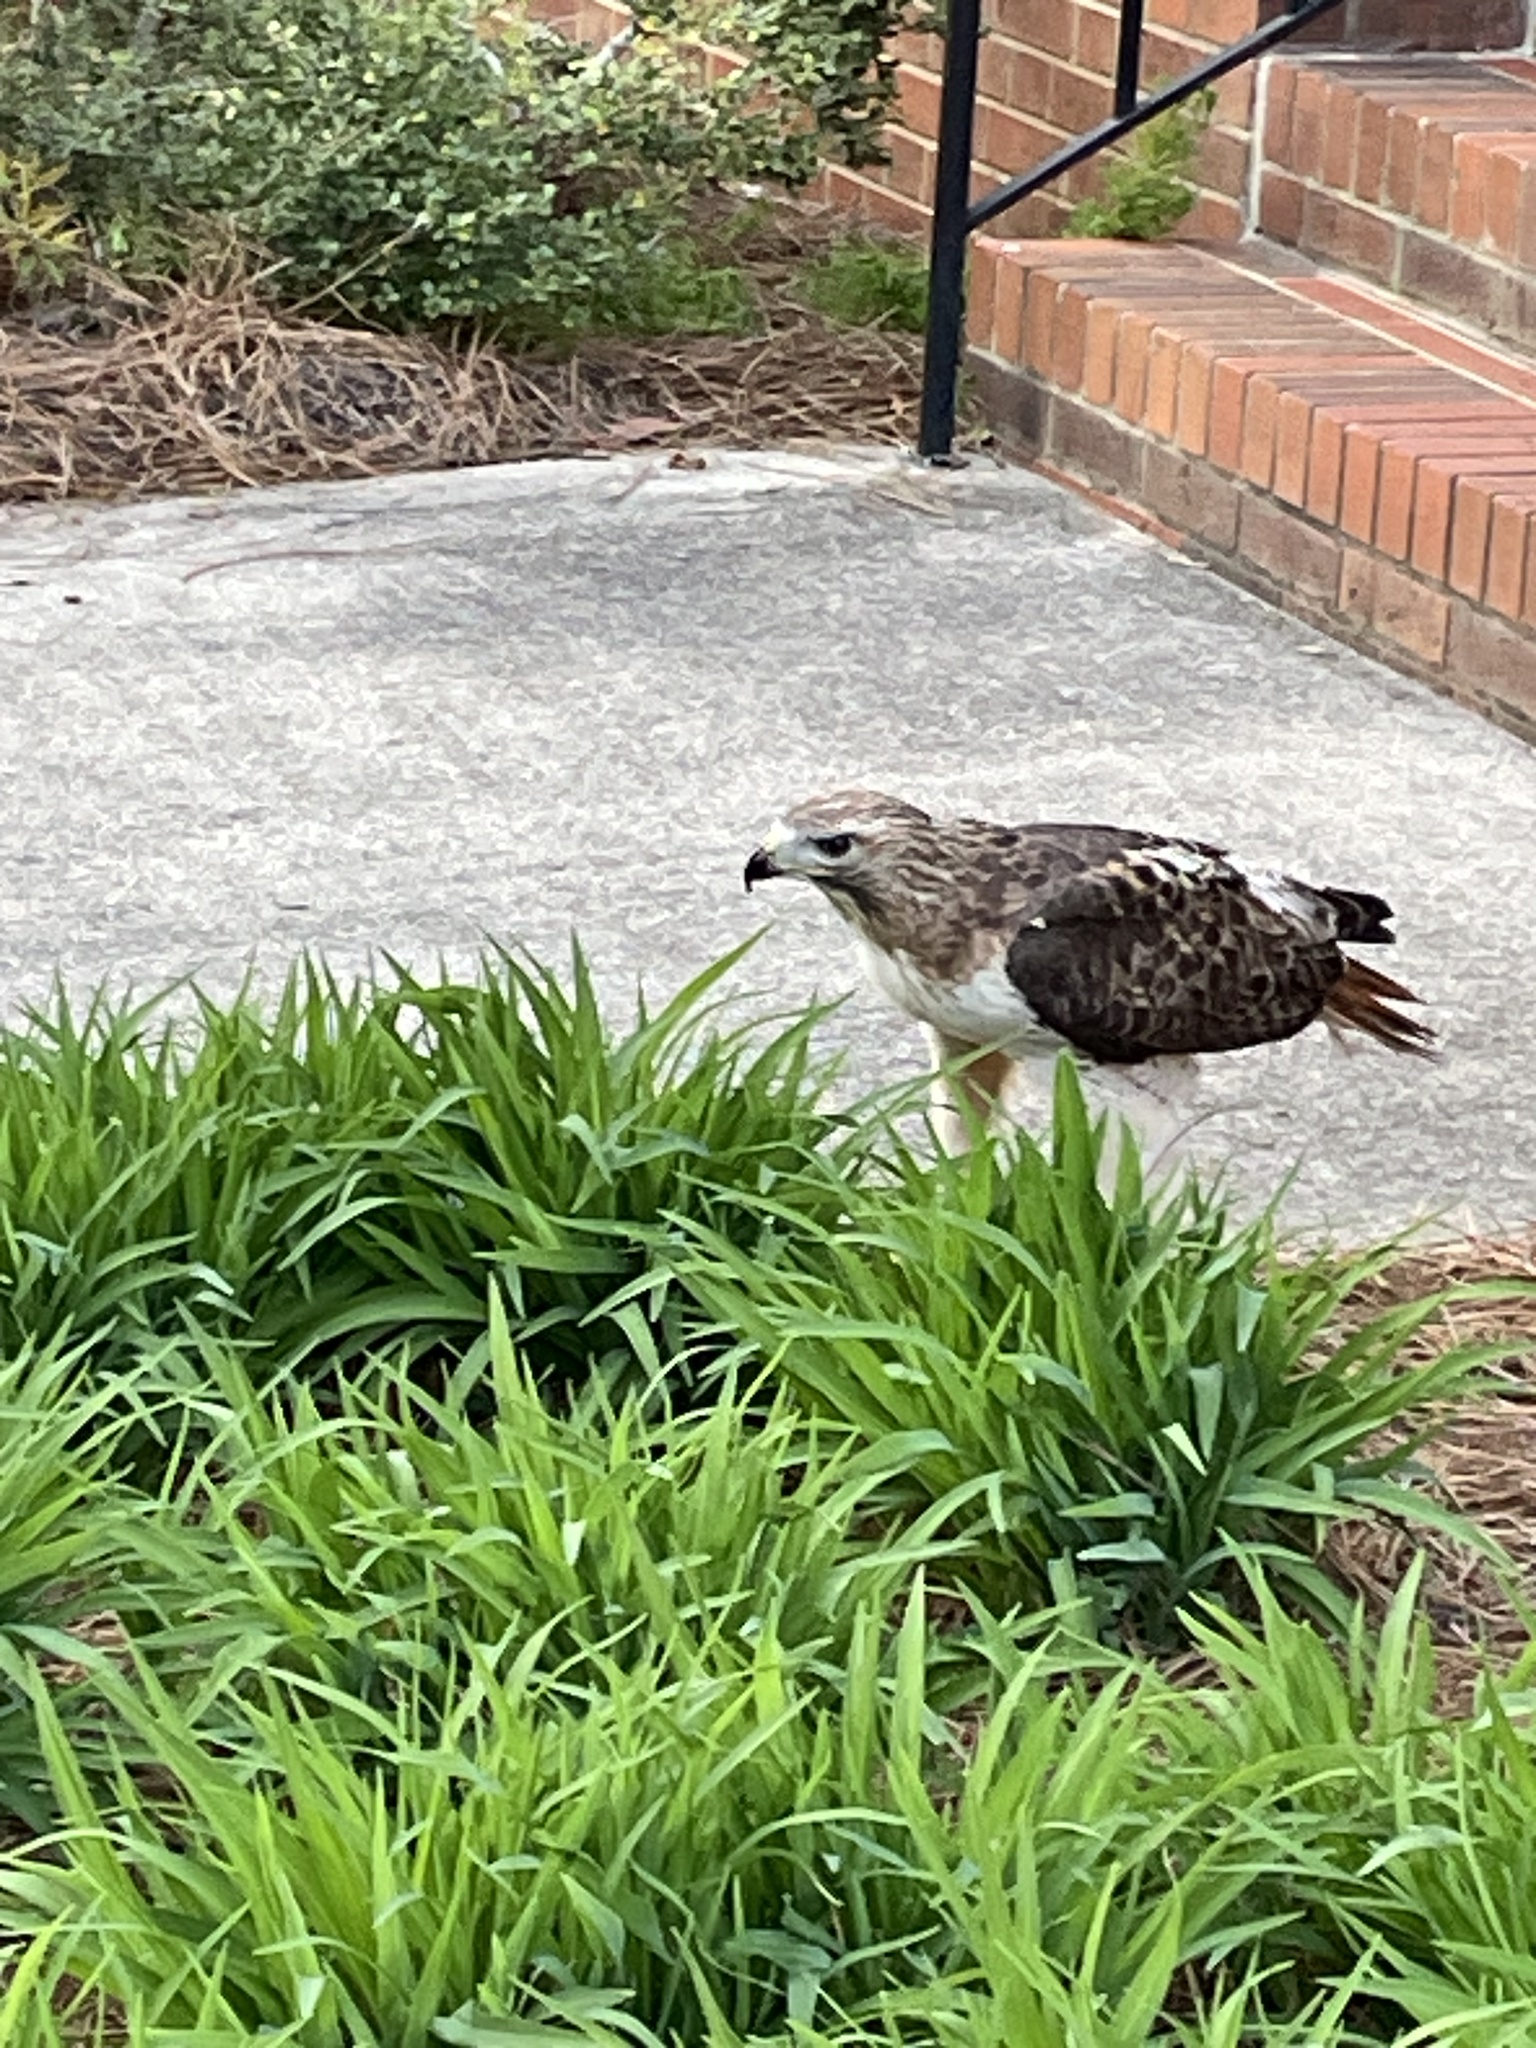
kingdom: Animalia
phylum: Chordata
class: Aves
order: Accipitriformes
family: Accipitridae
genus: Buteo
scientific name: Buteo jamaicensis
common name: Red-tailed hawk
